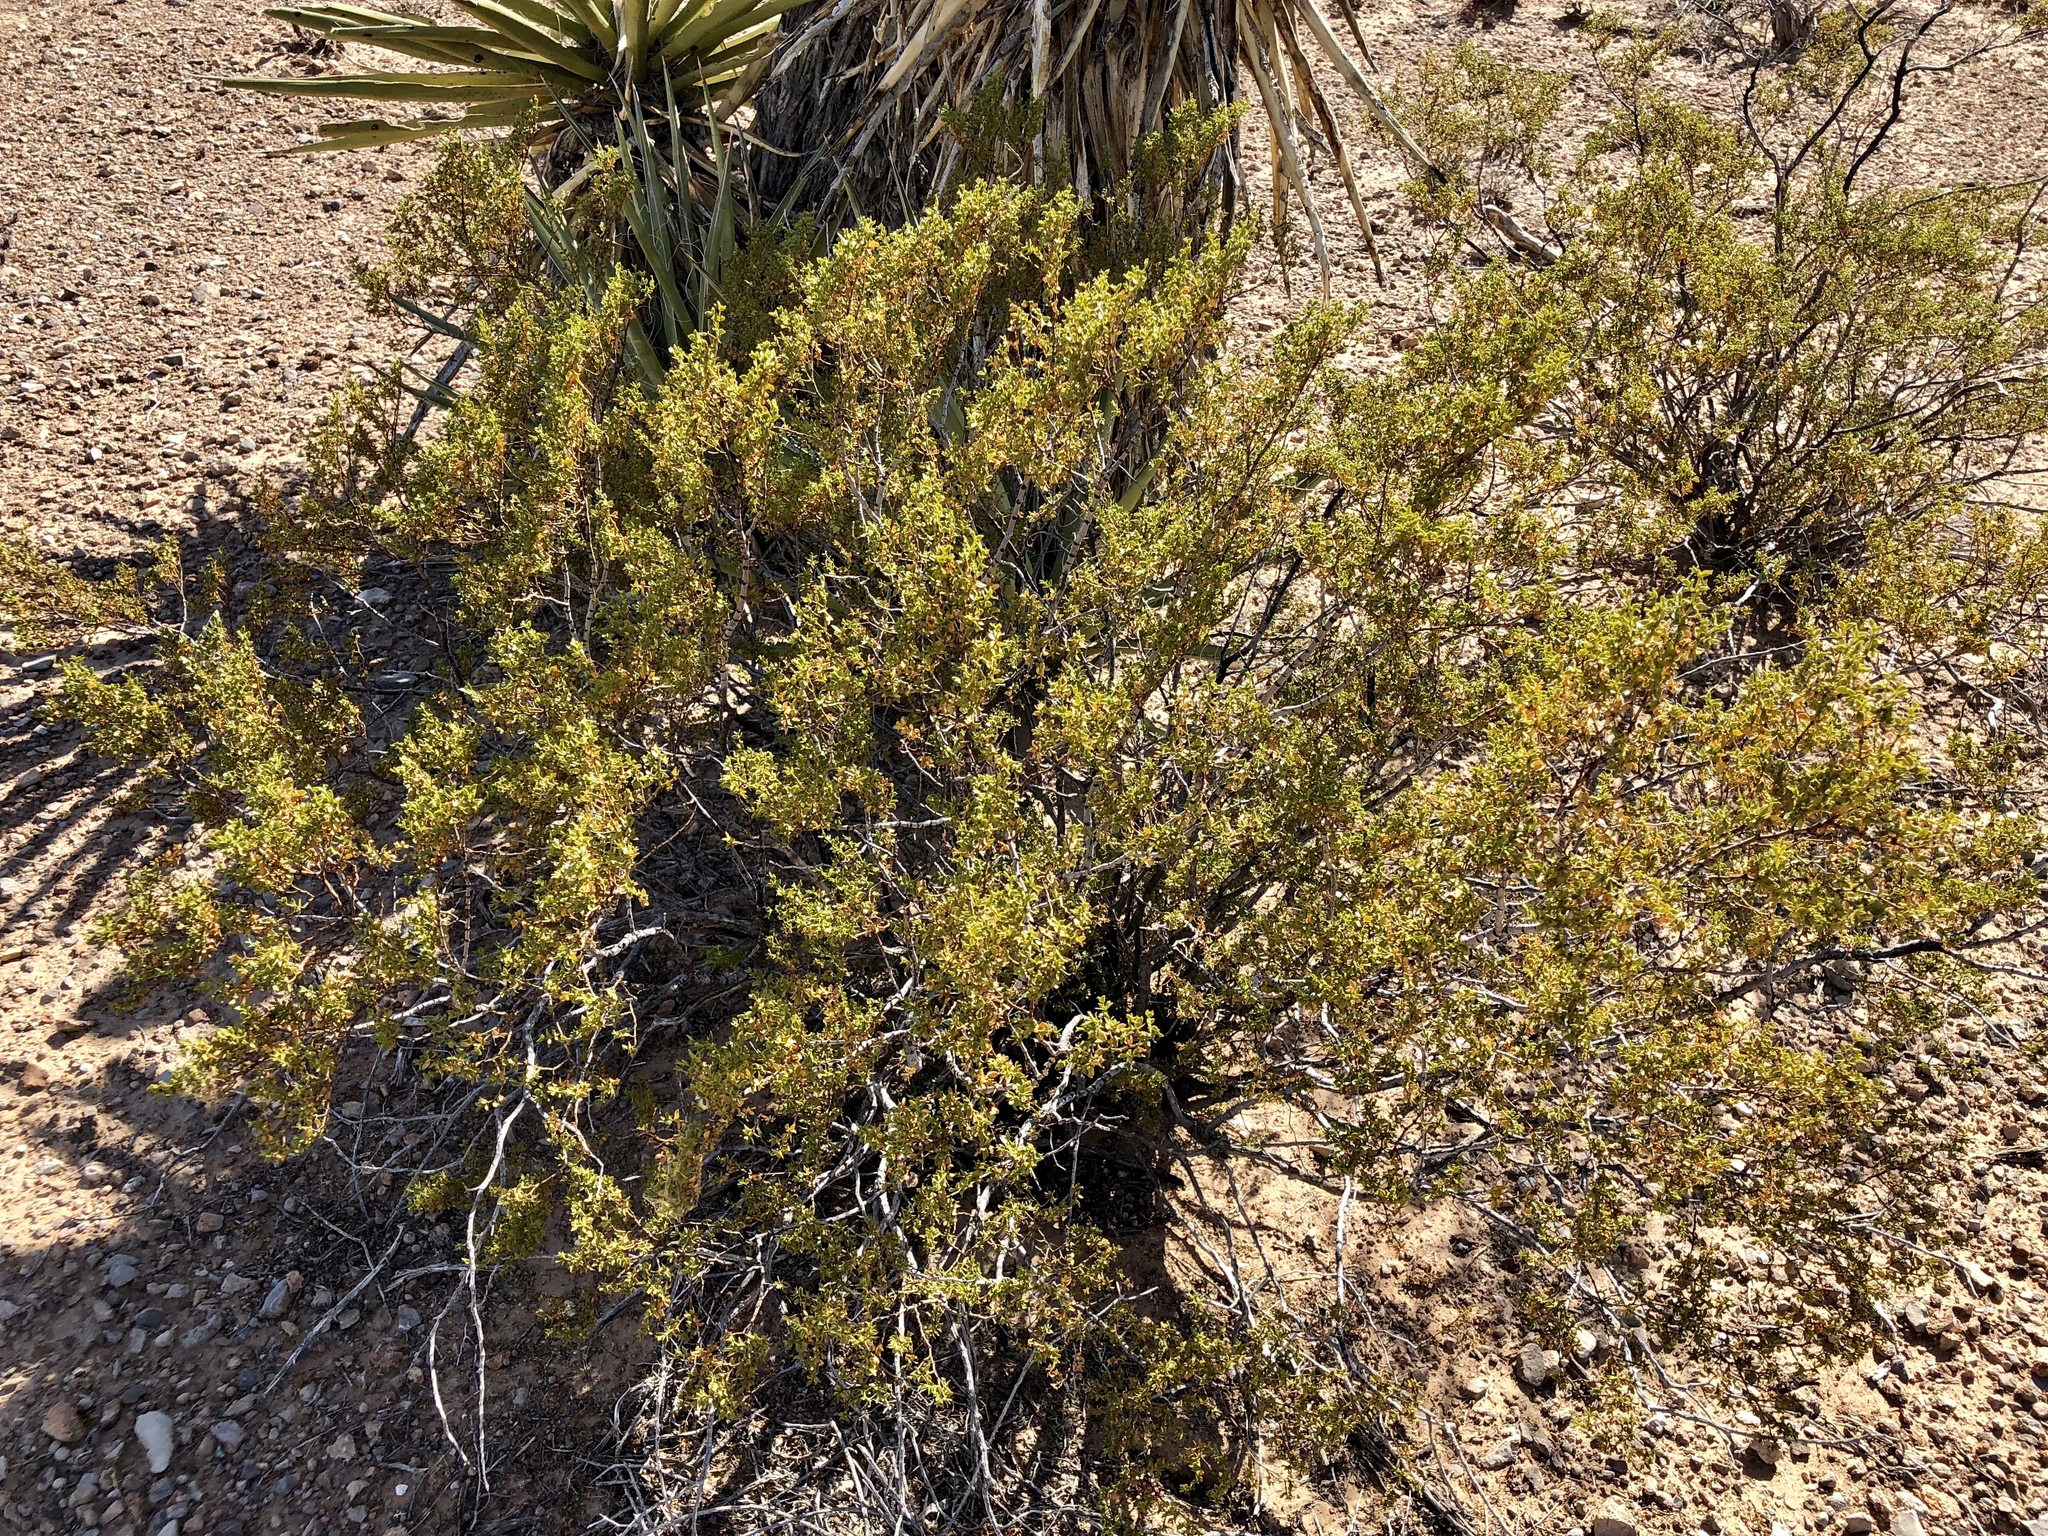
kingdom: Plantae
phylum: Tracheophyta
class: Magnoliopsida
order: Zygophyllales
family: Zygophyllaceae
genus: Larrea
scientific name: Larrea tridentata
